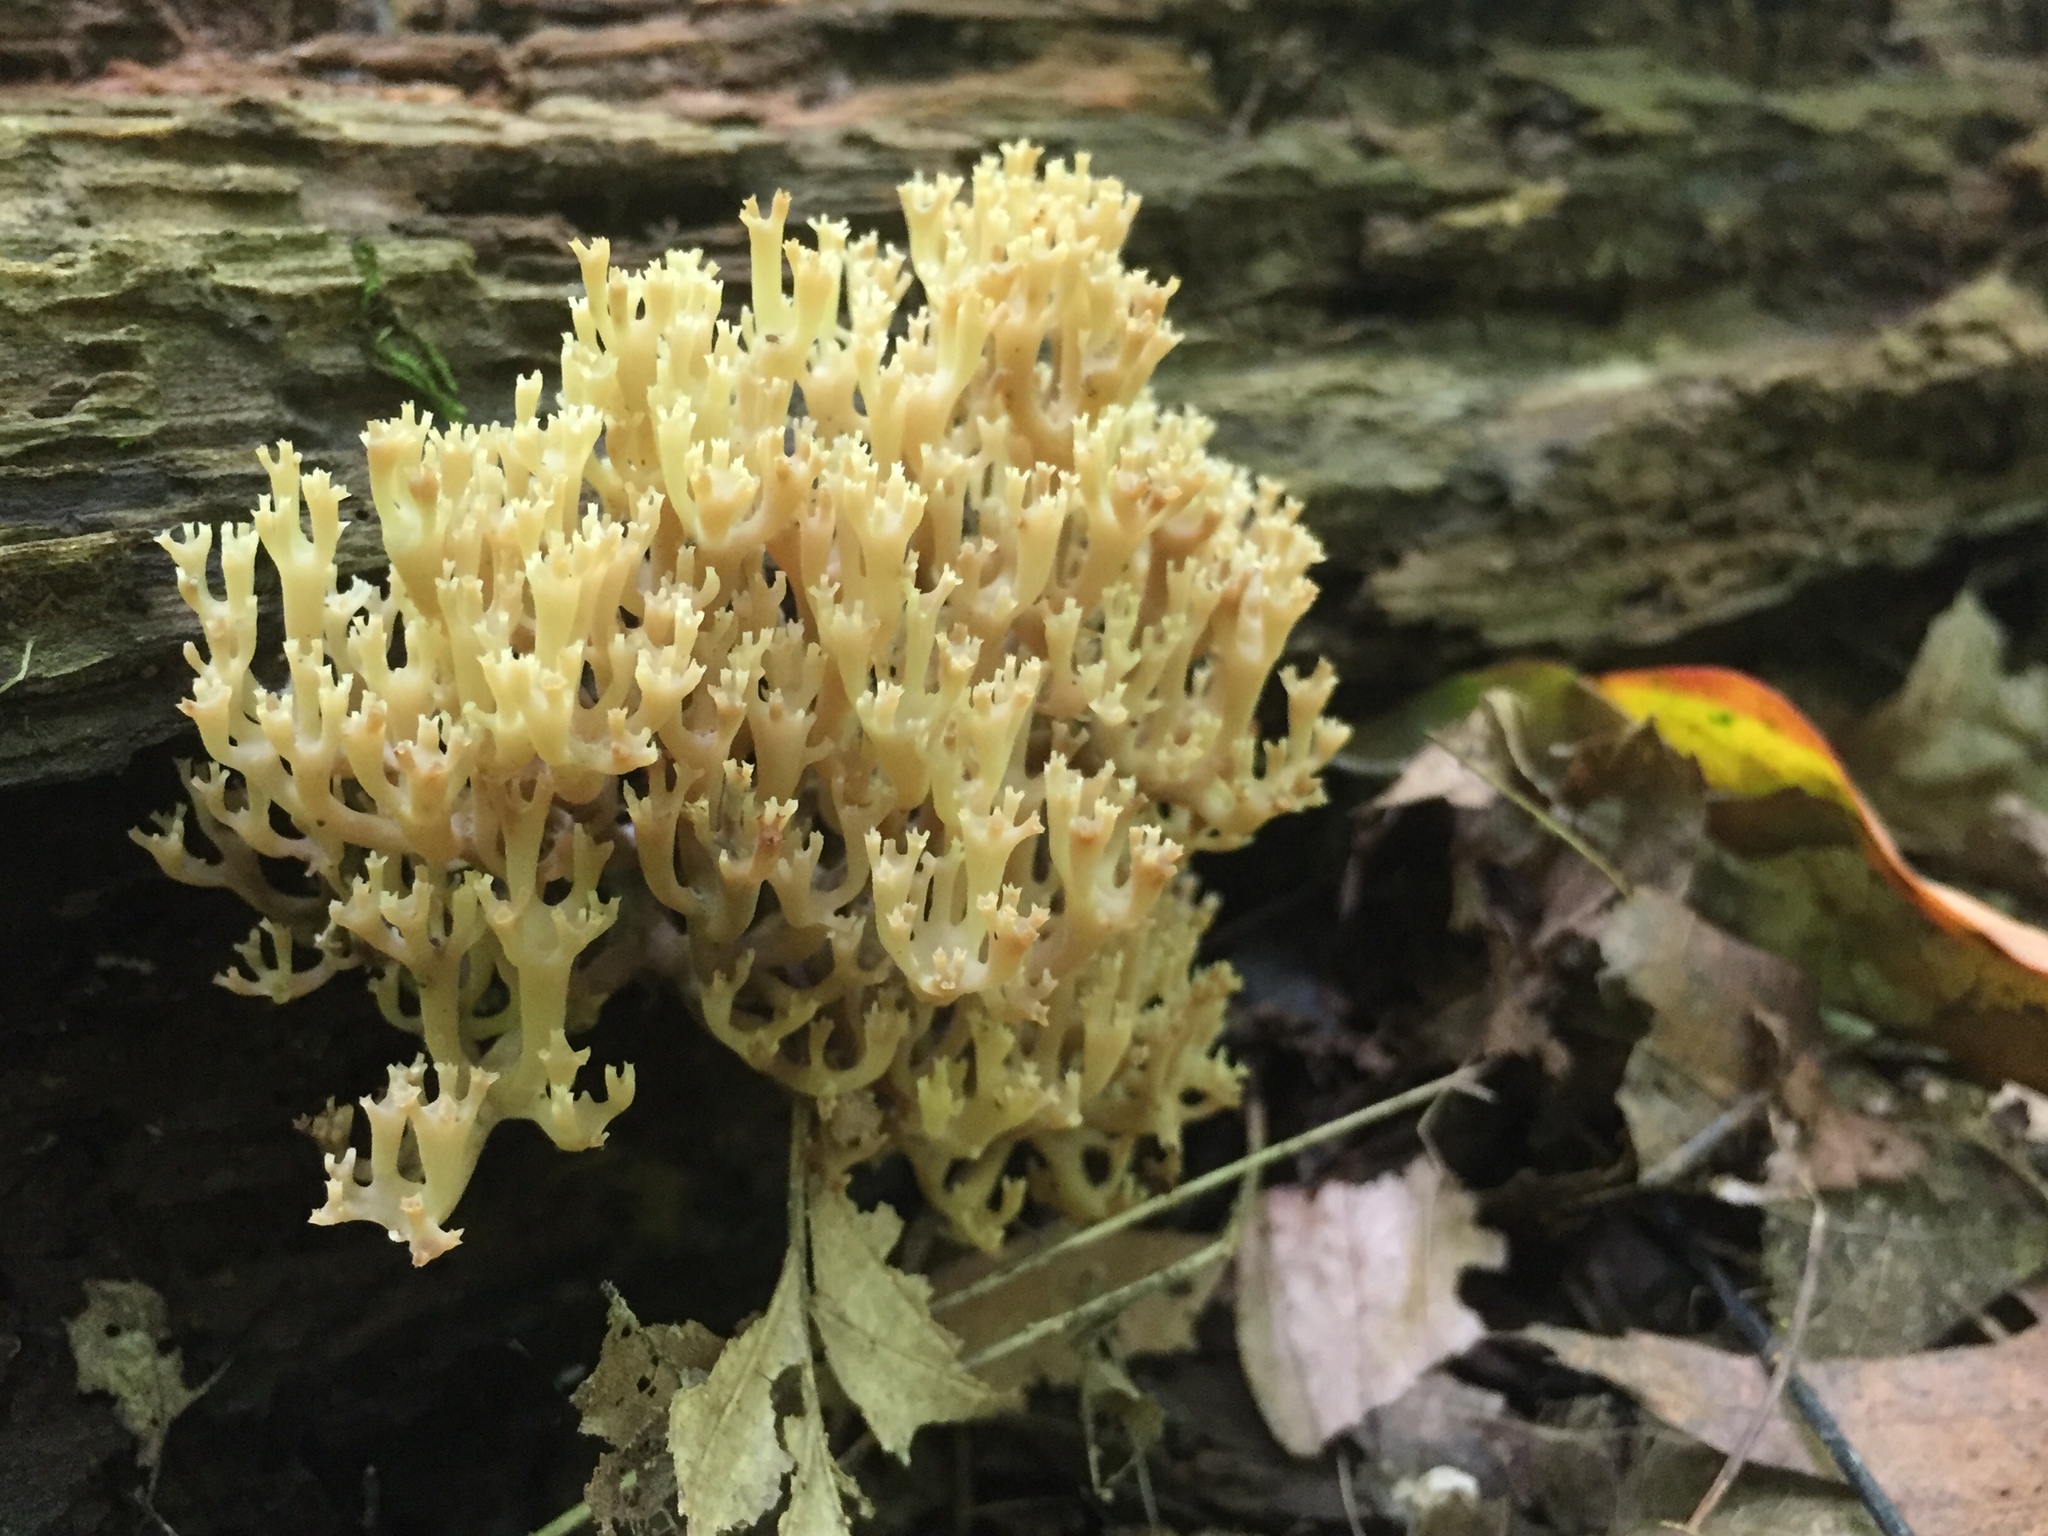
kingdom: Fungi
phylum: Basidiomycota
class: Agaricomycetes
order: Russulales
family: Auriscalpiaceae
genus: Artomyces
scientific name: Artomyces pyxidatus
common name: Crown-tipped coral fungus
